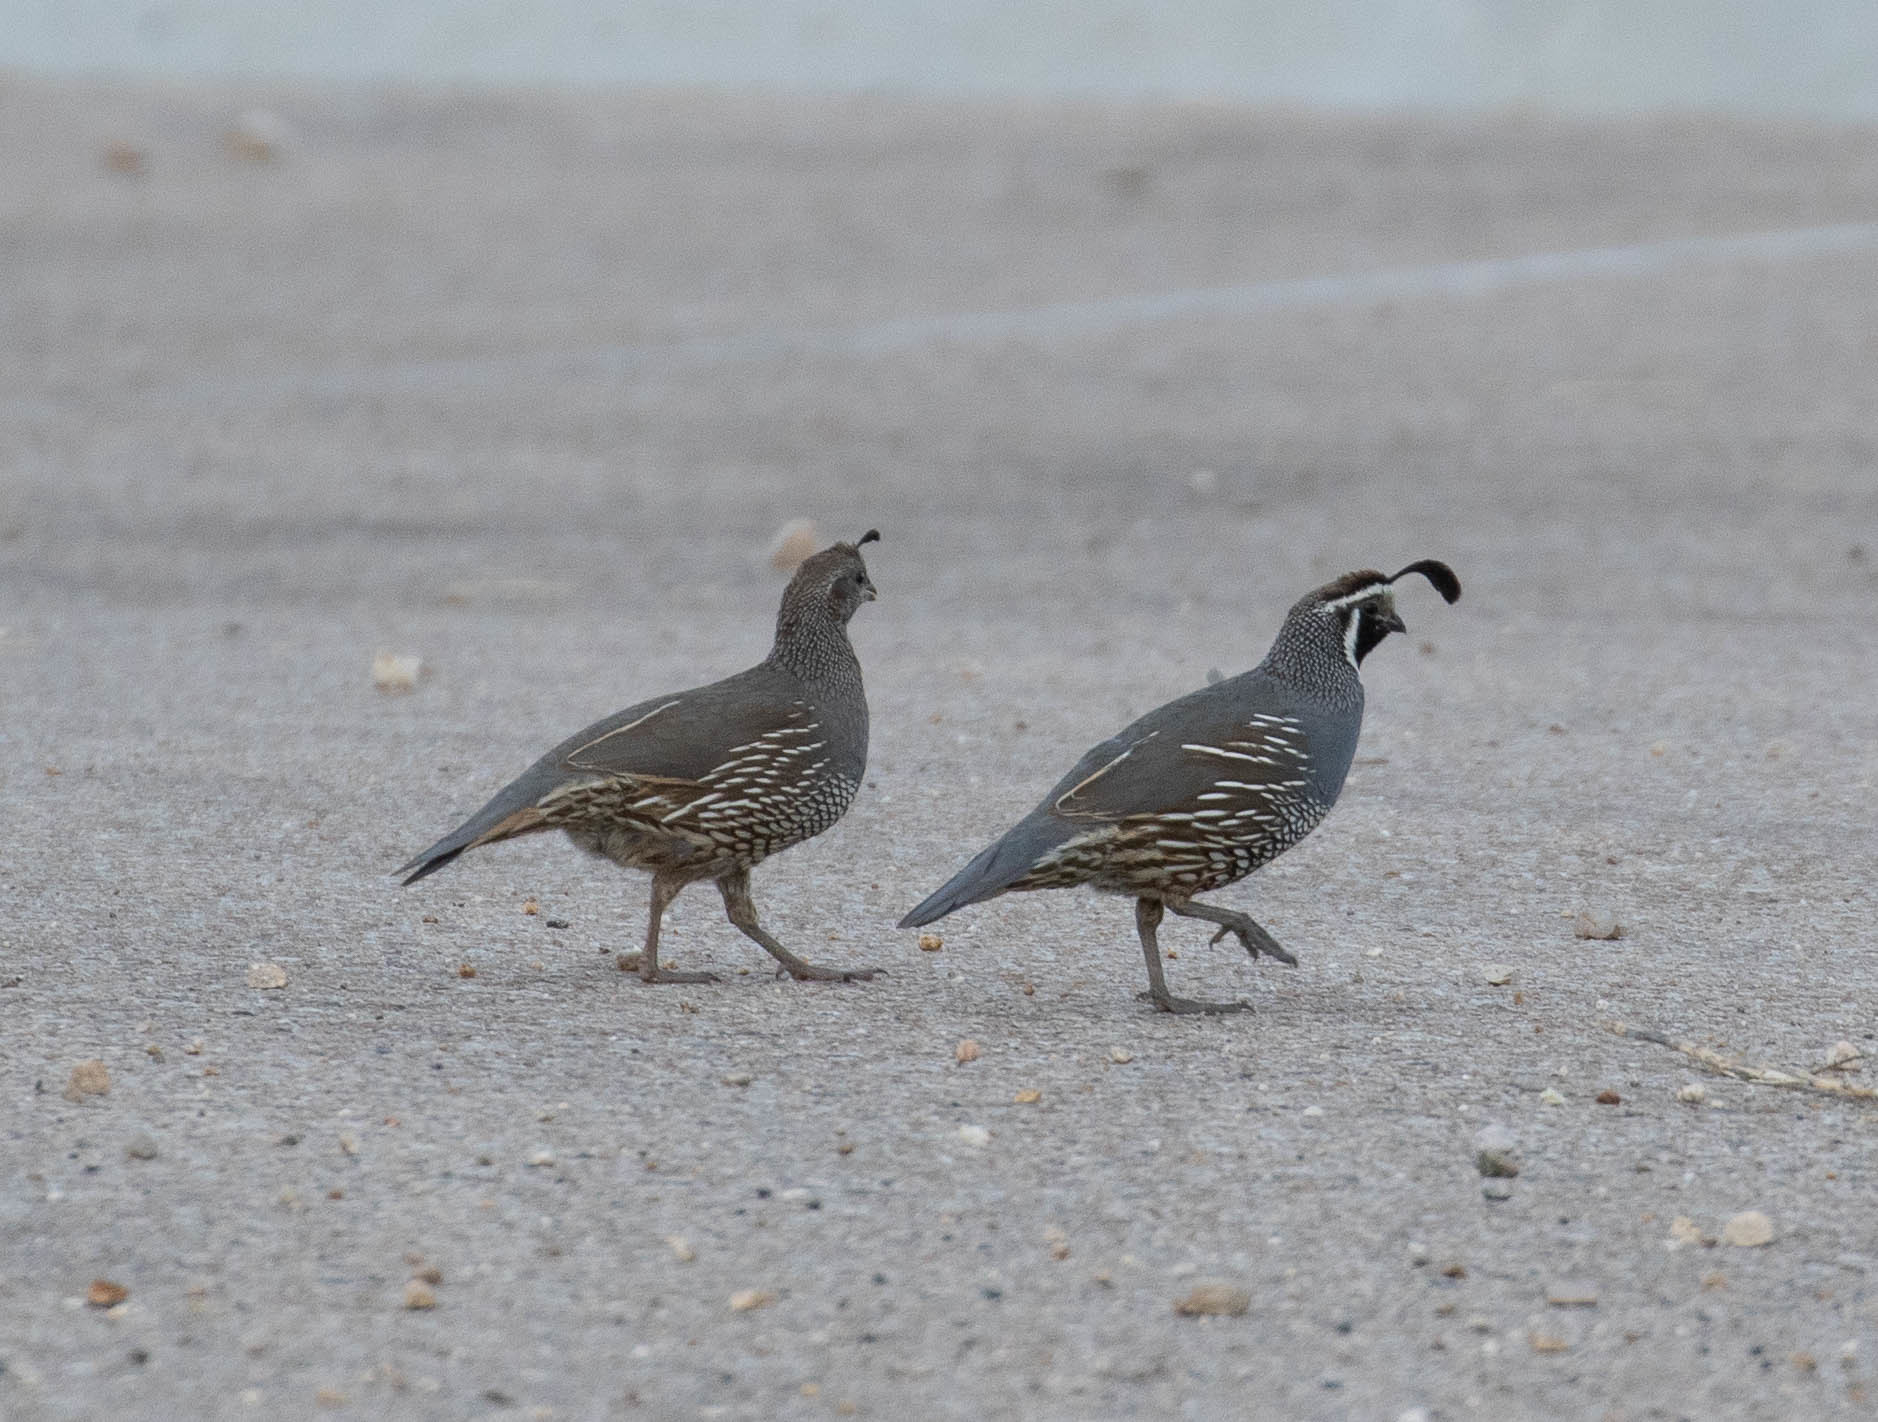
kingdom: Animalia
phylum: Chordata
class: Aves
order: Galliformes
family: Odontophoridae
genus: Callipepla
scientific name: Callipepla californica
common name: California quail
